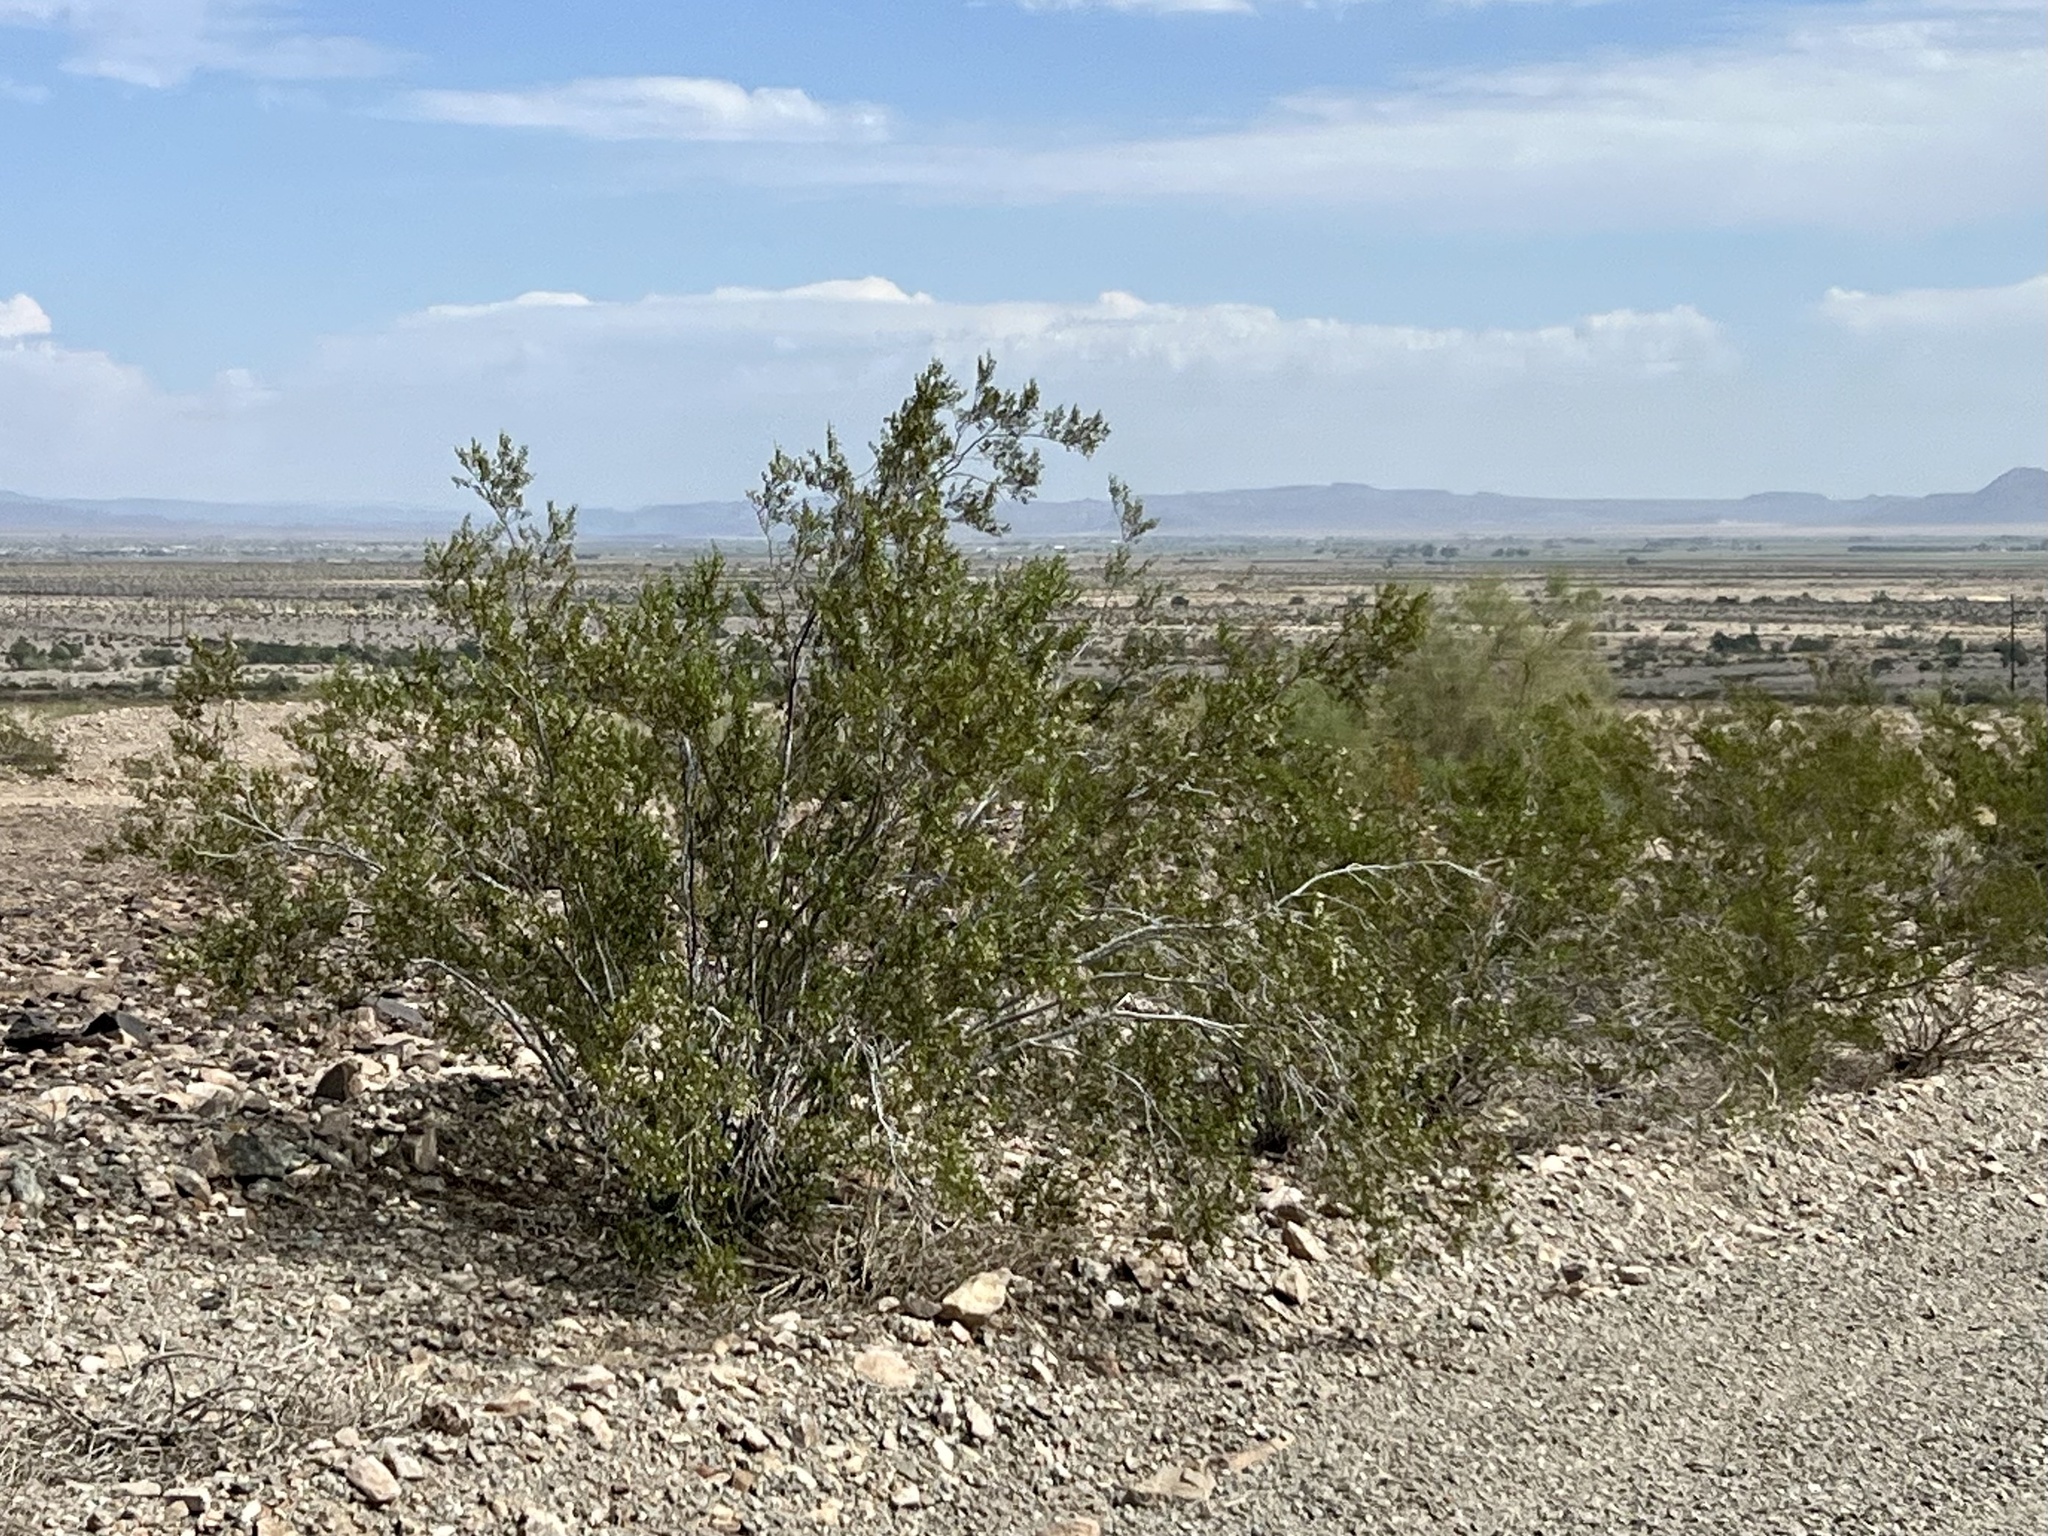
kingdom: Plantae
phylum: Tracheophyta
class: Magnoliopsida
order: Zygophyllales
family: Zygophyllaceae
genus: Larrea
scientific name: Larrea tridentata
